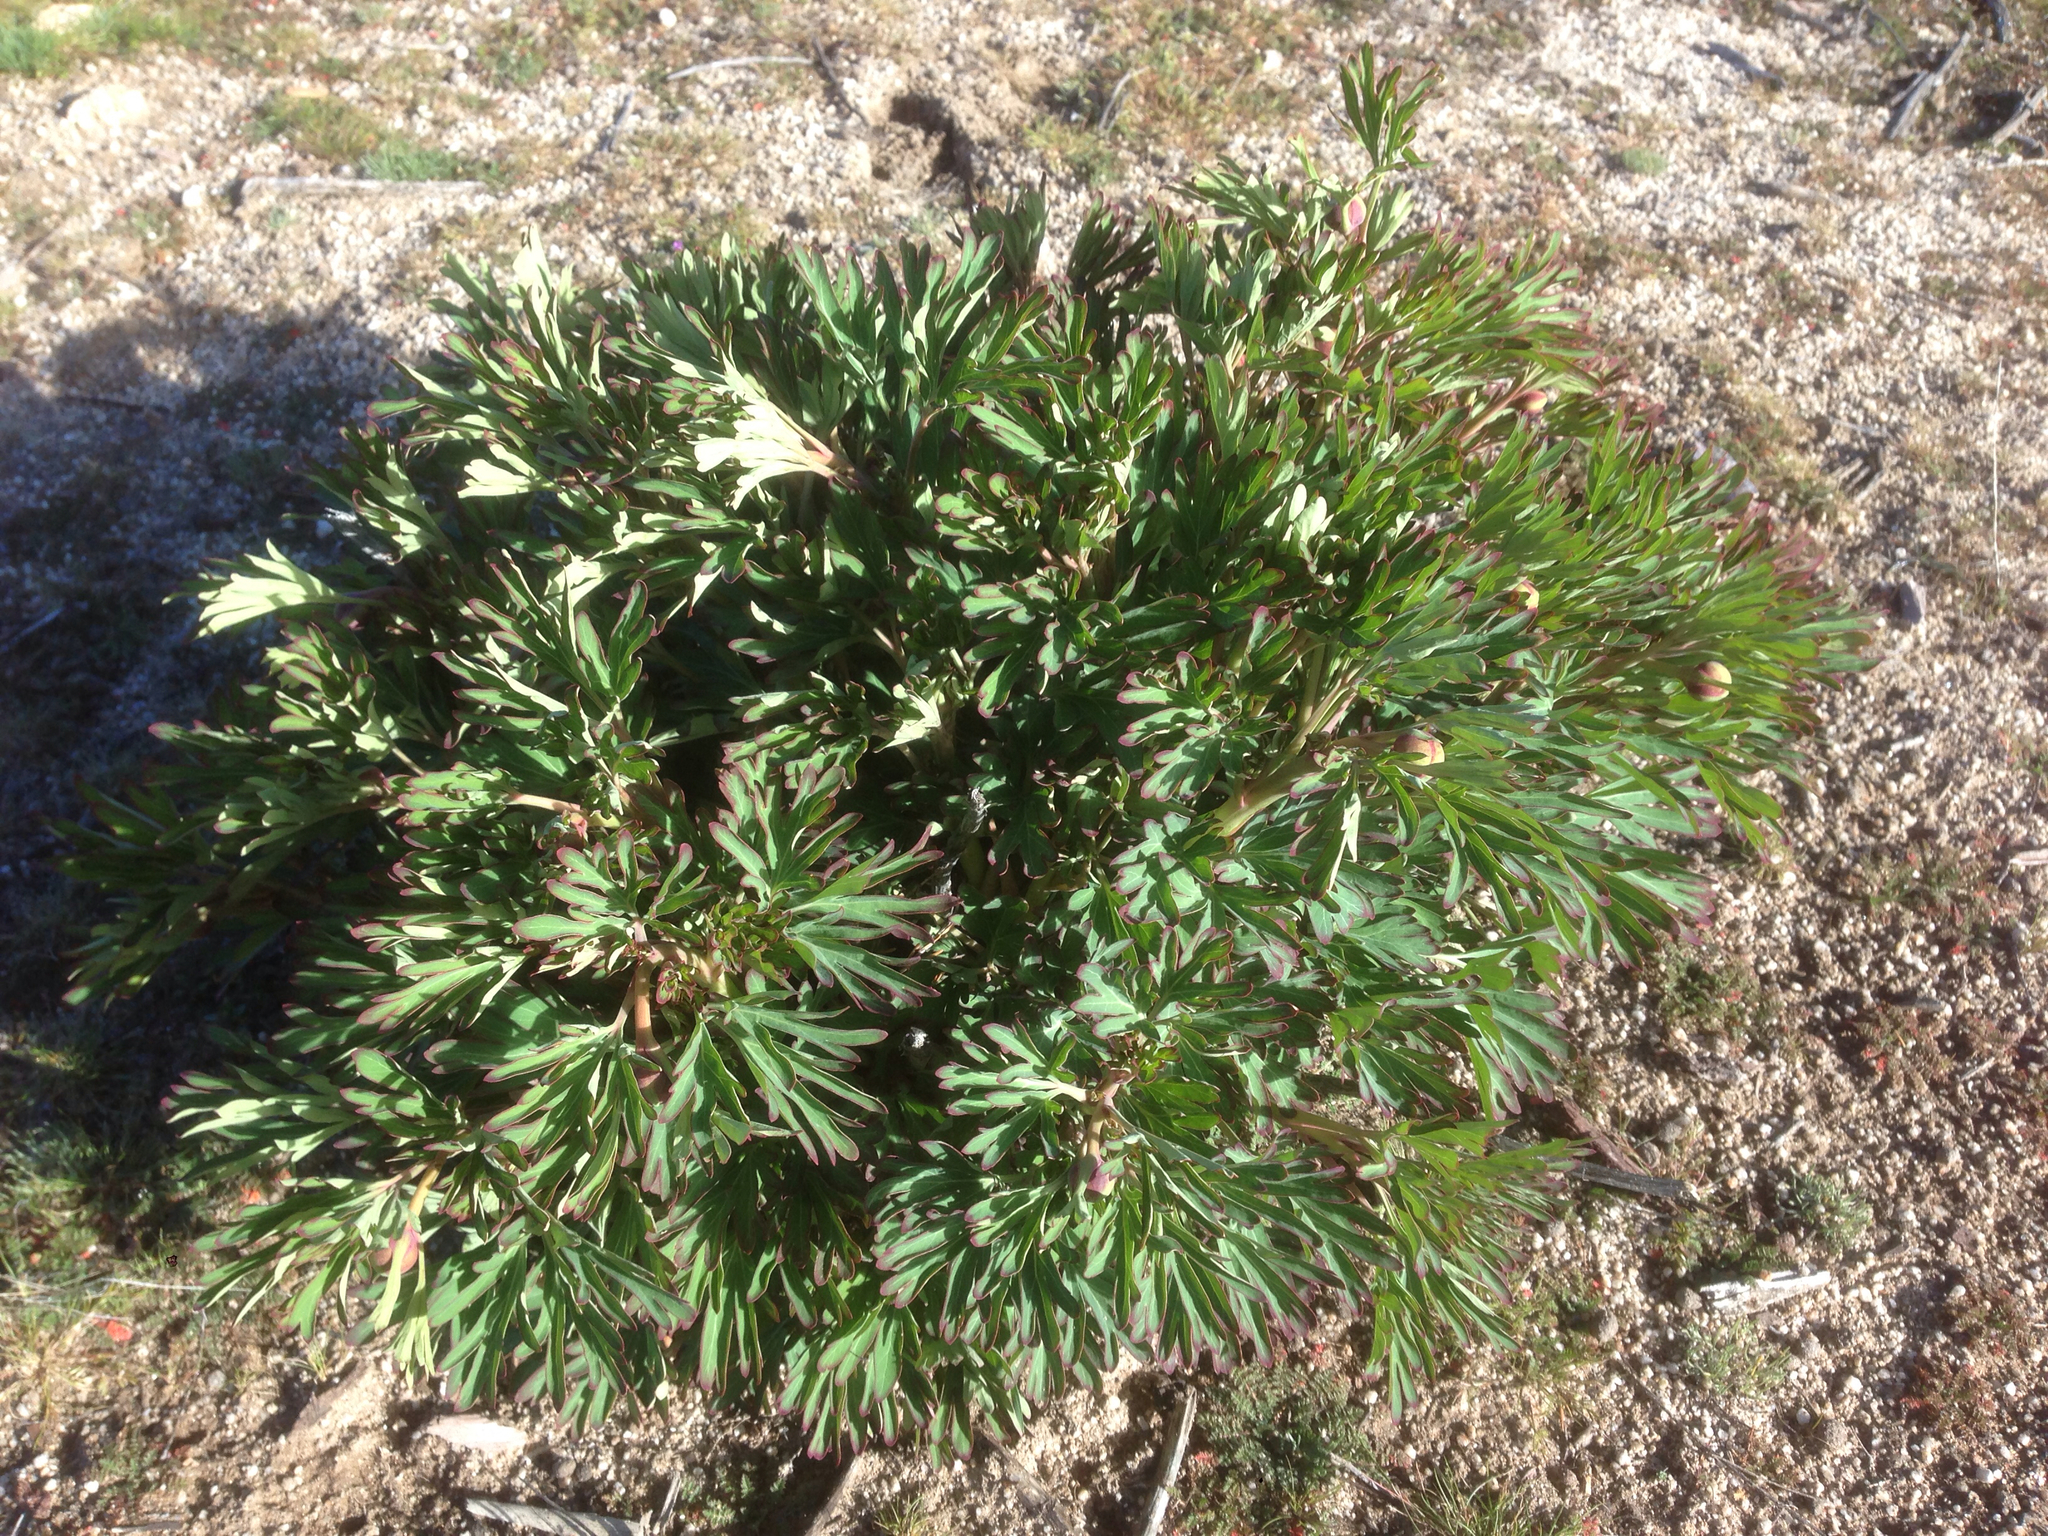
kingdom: Plantae
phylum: Tracheophyta
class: Magnoliopsida
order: Saxifragales
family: Paeoniaceae
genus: Paeonia
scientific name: Paeonia californica
